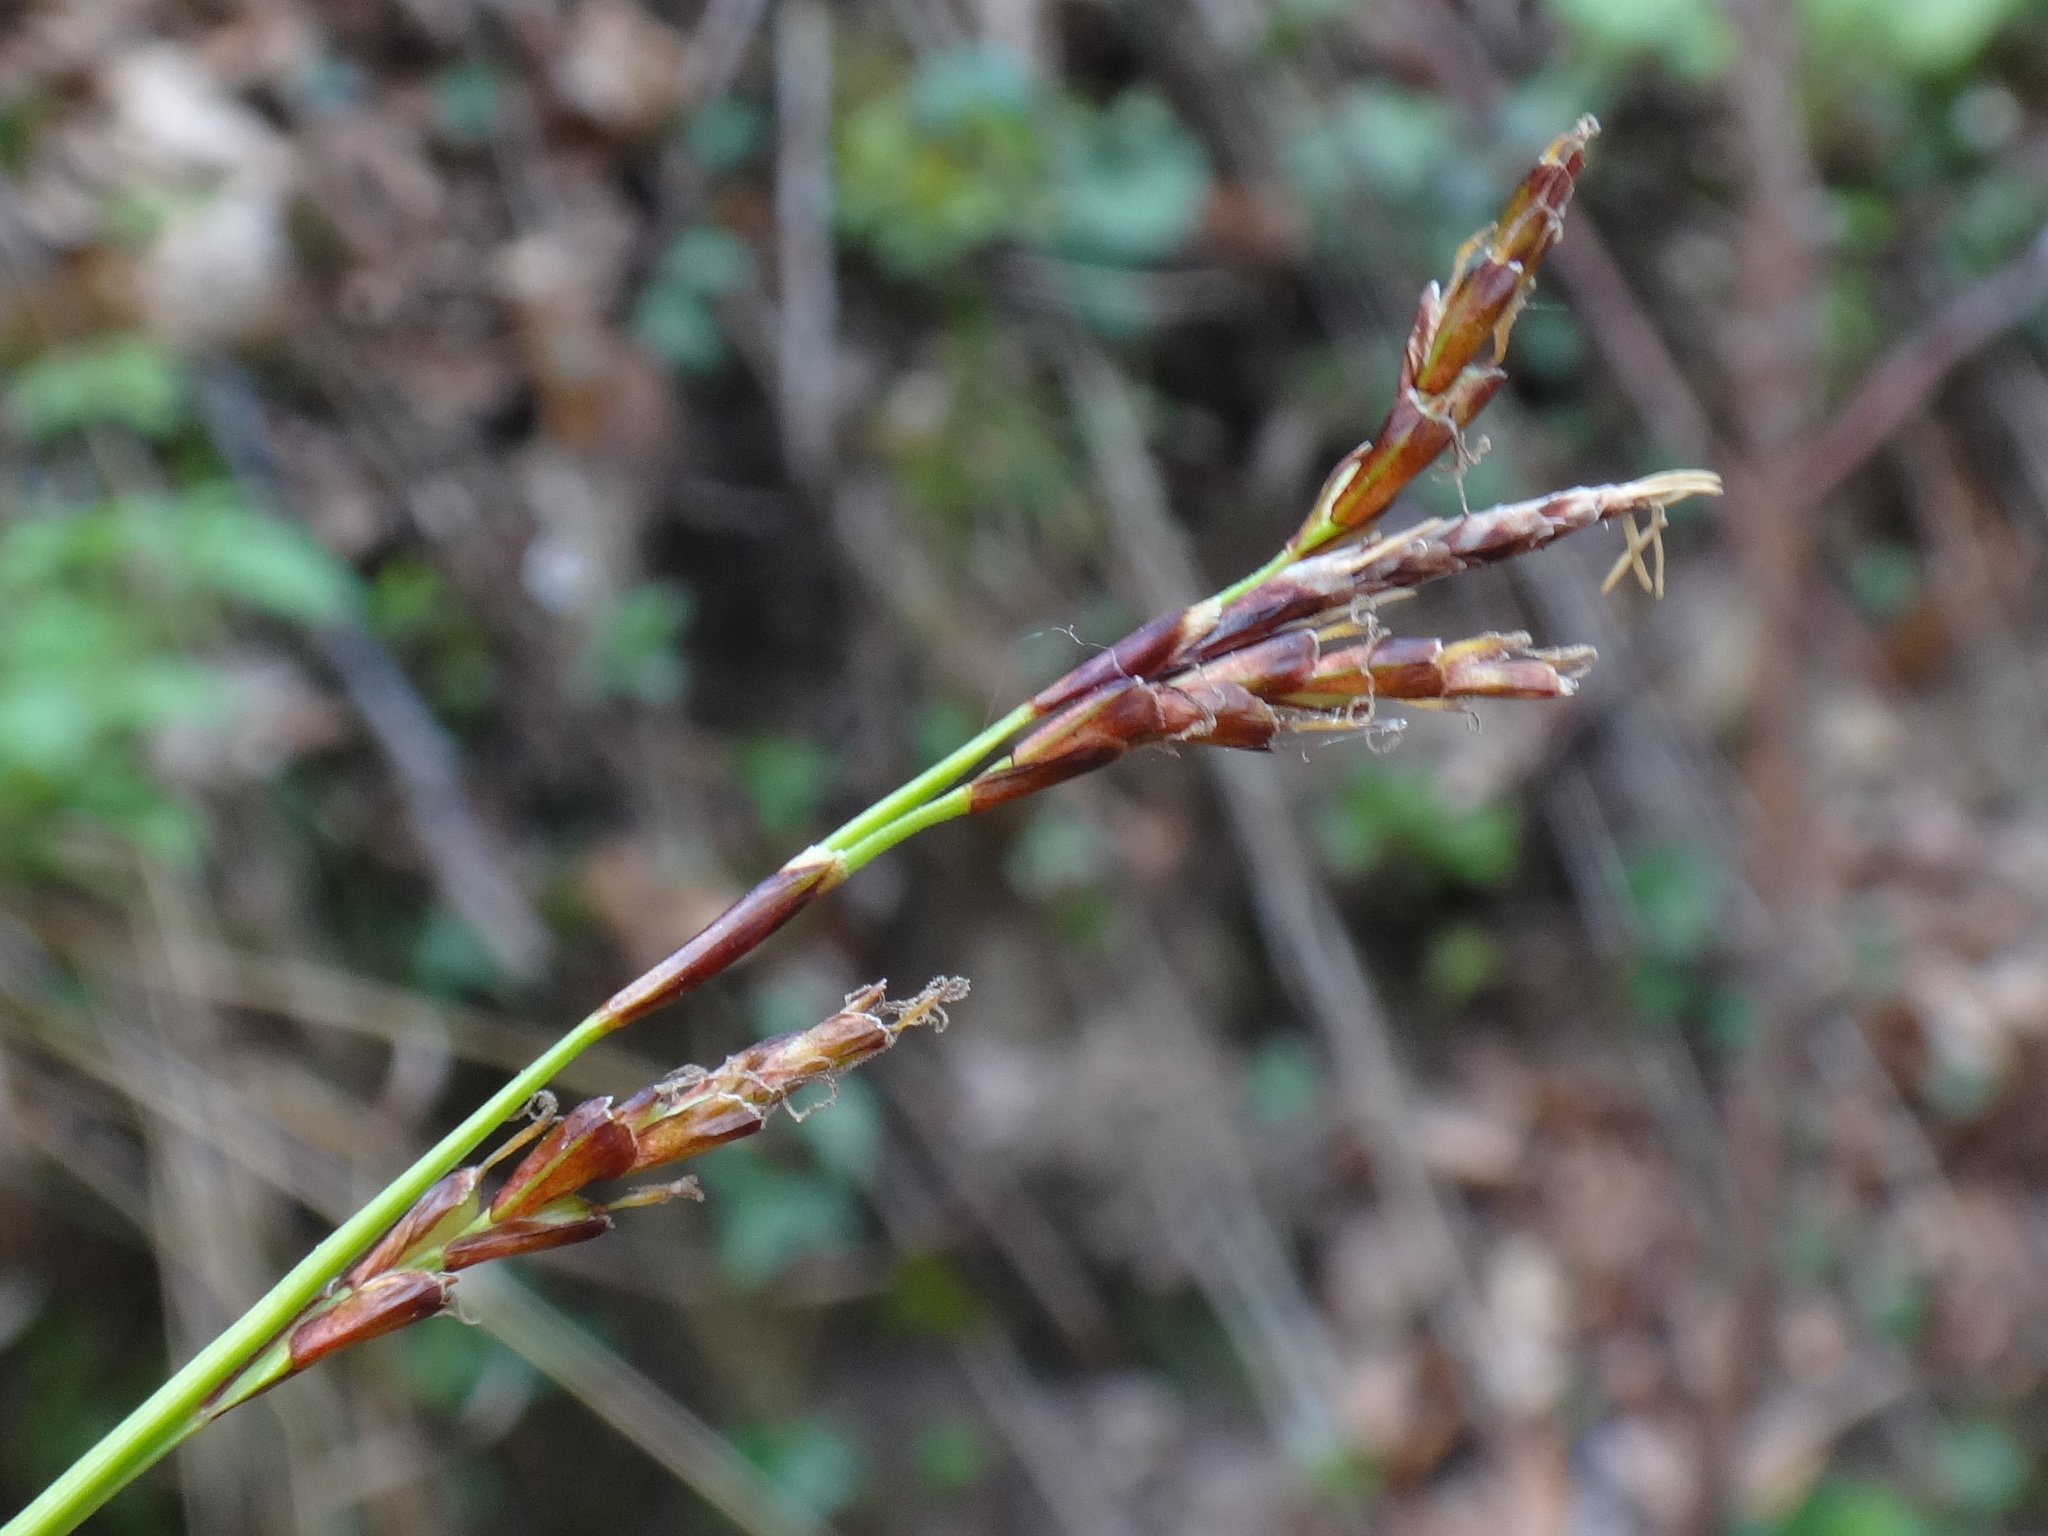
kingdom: Plantae
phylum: Tracheophyta
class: Liliopsida
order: Poales
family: Cyperaceae
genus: Carex
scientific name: Carex digitata
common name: Fingered sedge
